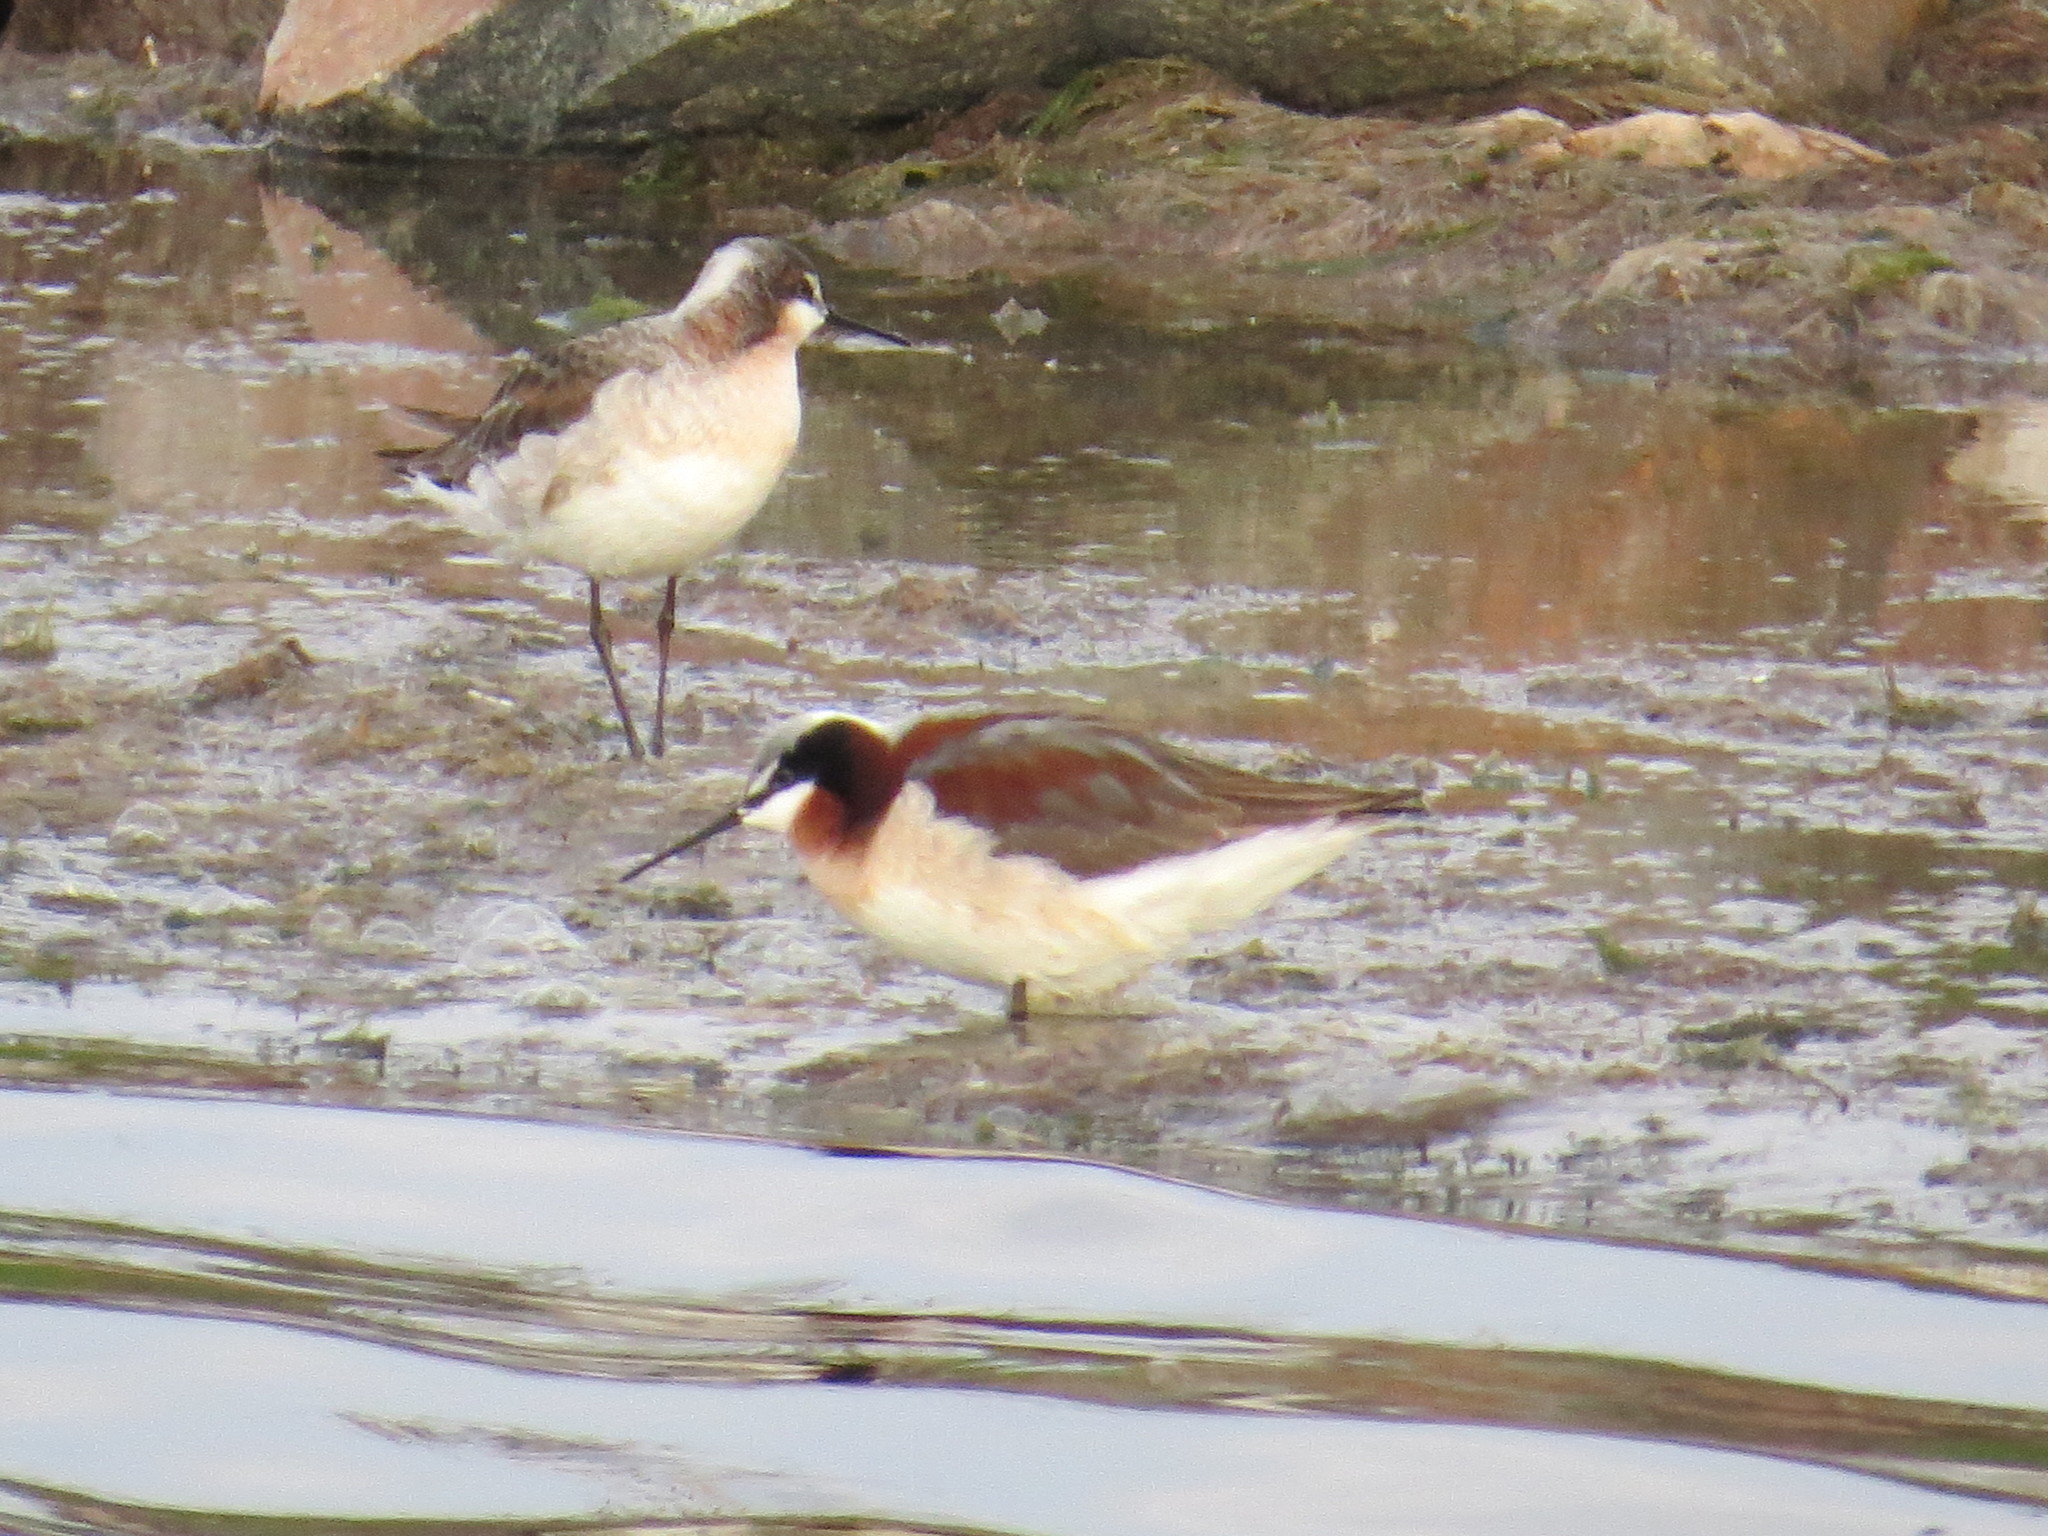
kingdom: Animalia
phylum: Chordata
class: Aves
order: Charadriiformes
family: Scolopacidae
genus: Phalaropus
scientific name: Phalaropus tricolor
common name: Wilson's phalarope
